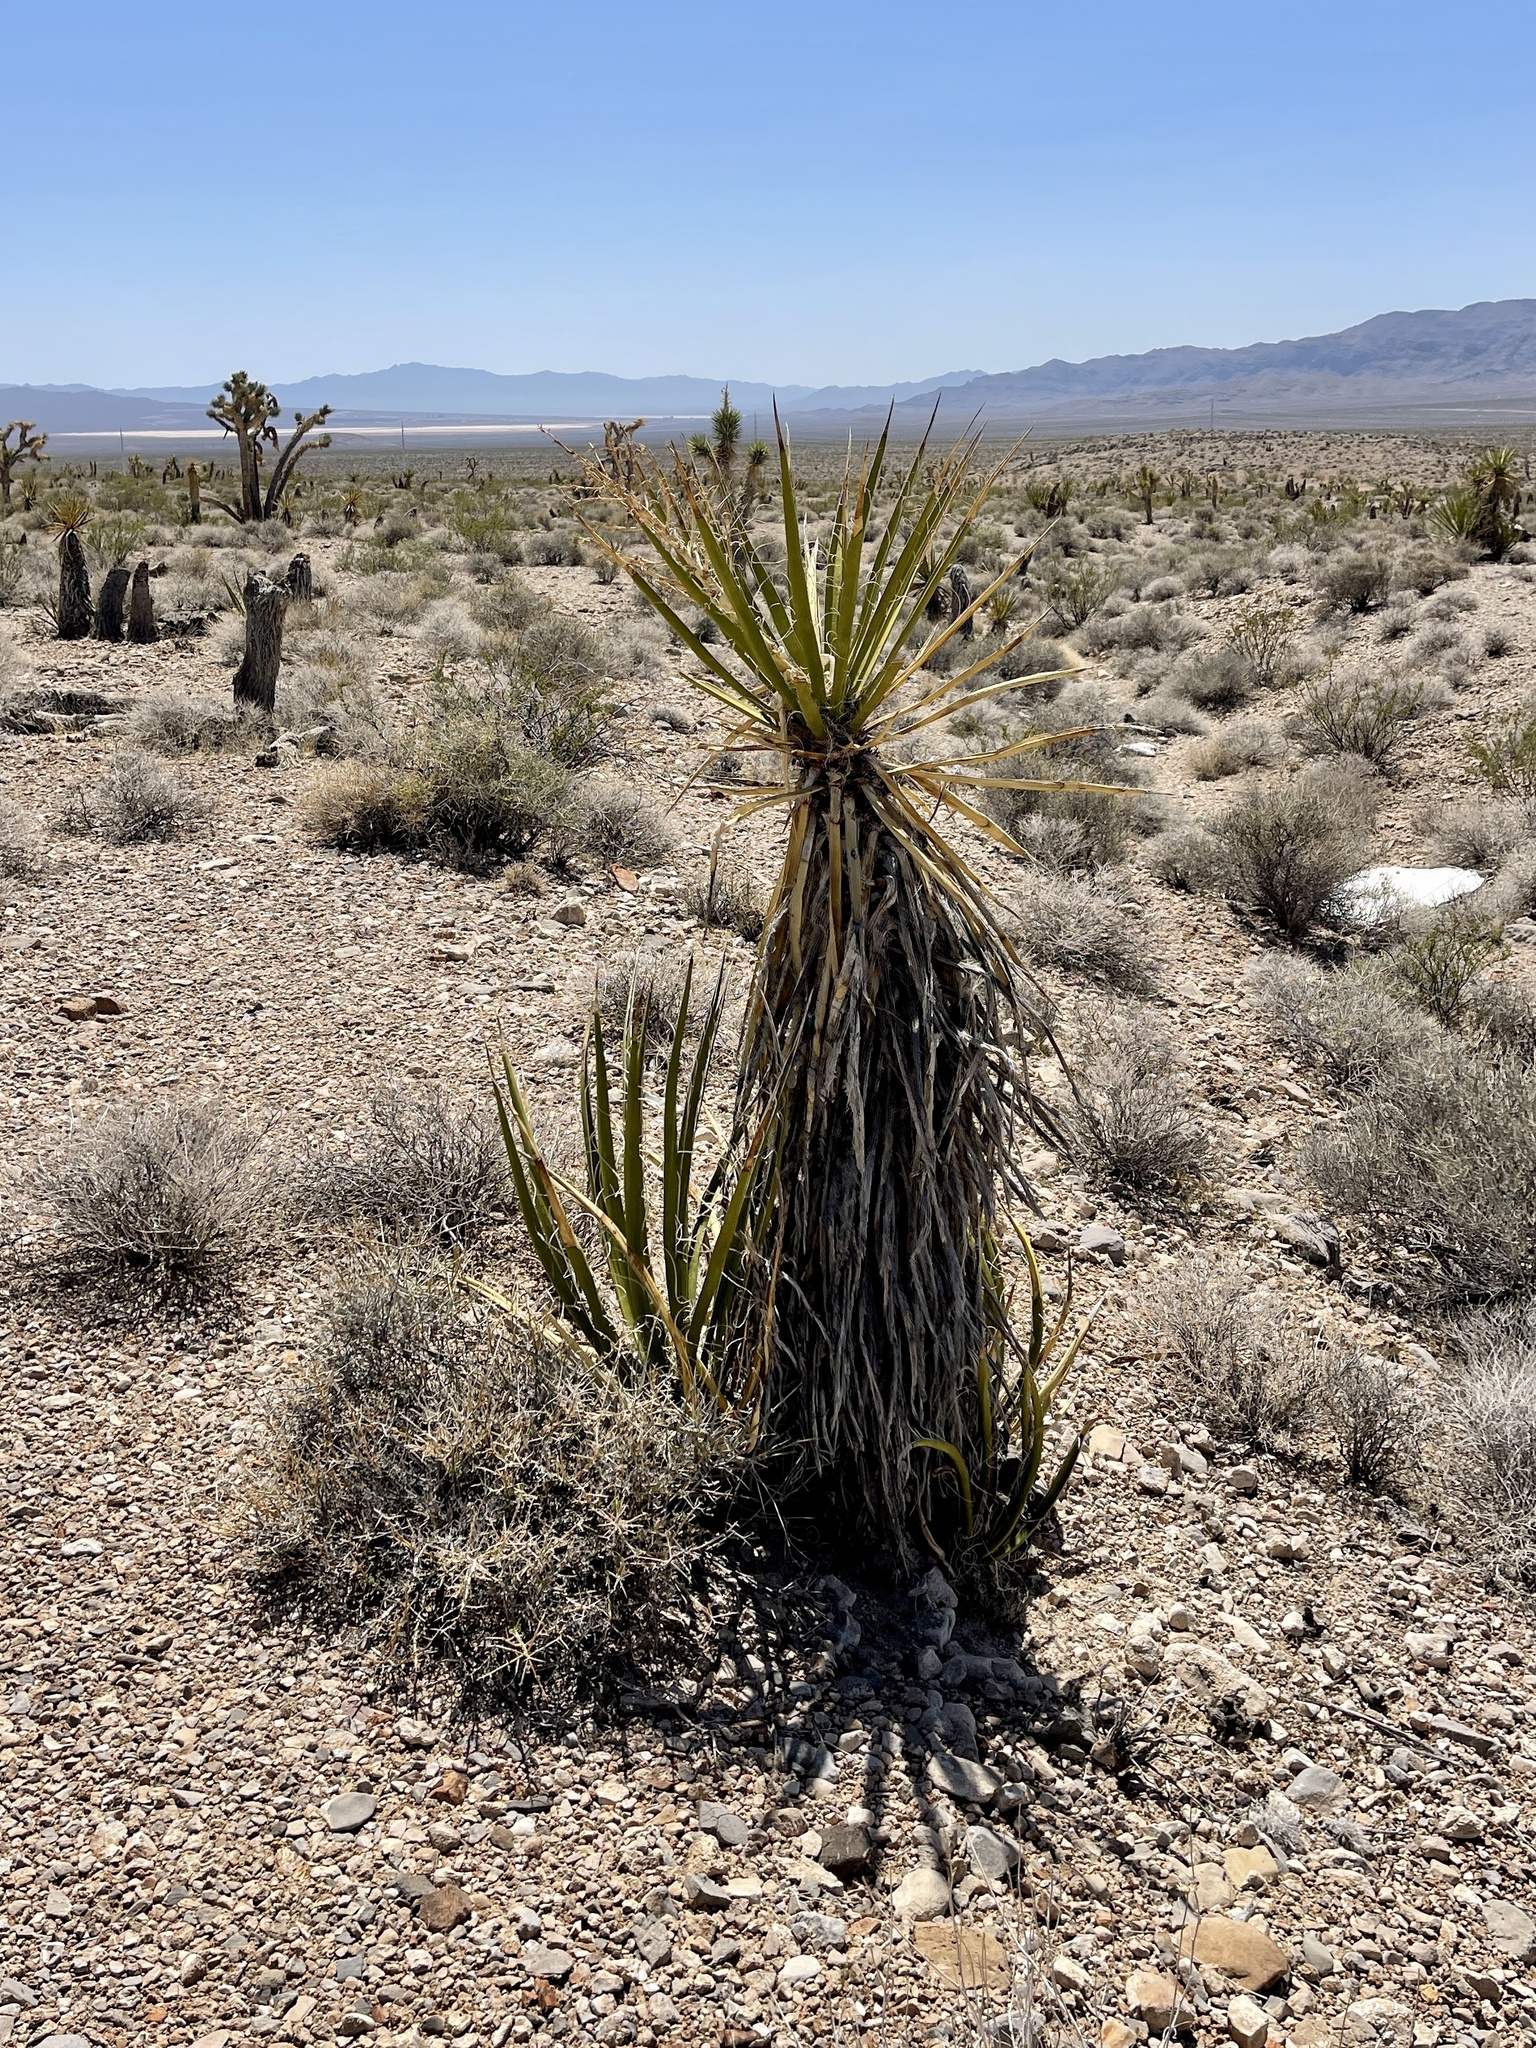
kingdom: Plantae
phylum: Tracheophyta
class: Liliopsida
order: Asparagales
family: Asparagaceae
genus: Yucca
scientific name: Yucca schidigera
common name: Mojave yucca
